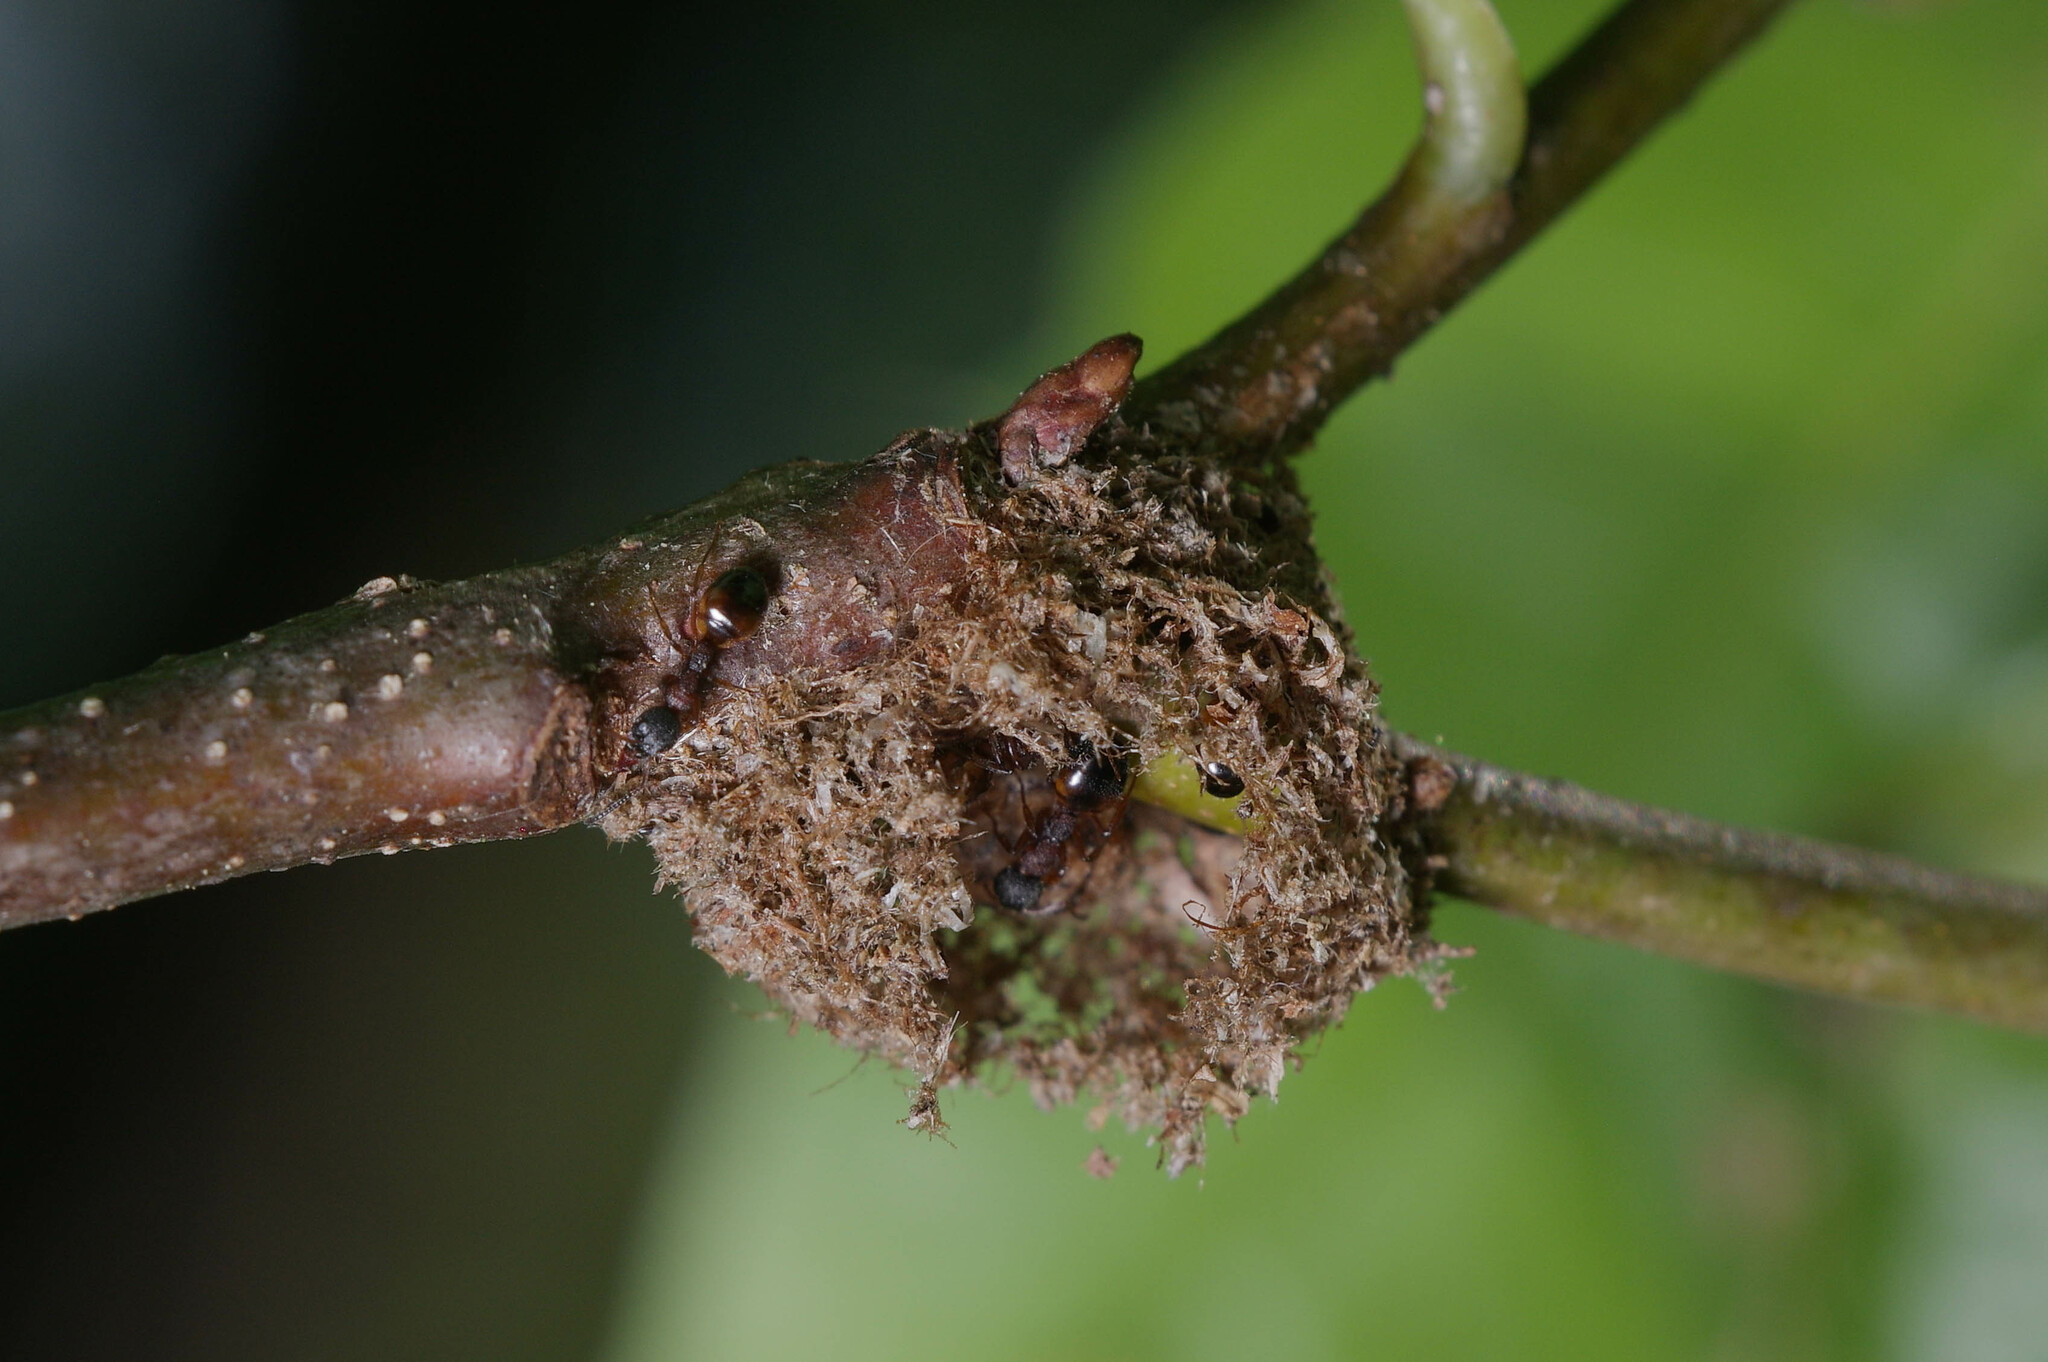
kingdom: Animalia
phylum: Arthropoda
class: Insecta
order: Hymenoptera
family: Formicidae
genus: Dolichoderus
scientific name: Dolichoderus plagiatus
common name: Mottled dolichoderus
